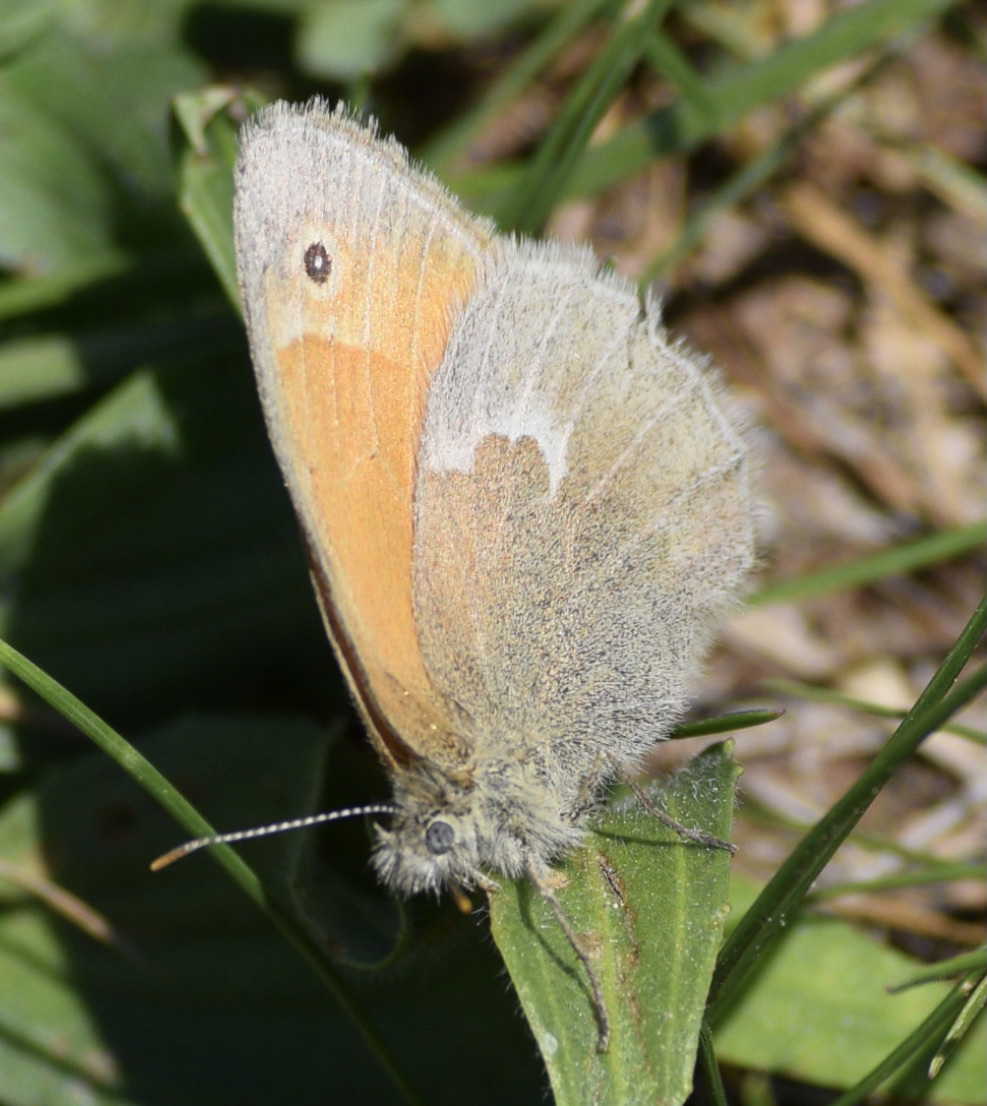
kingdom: Animalia
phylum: Arthropoda
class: Insecta
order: Lepidoptera
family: Nymphalidae
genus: Coenonympha
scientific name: Coenonympha california
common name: Common ringlet
